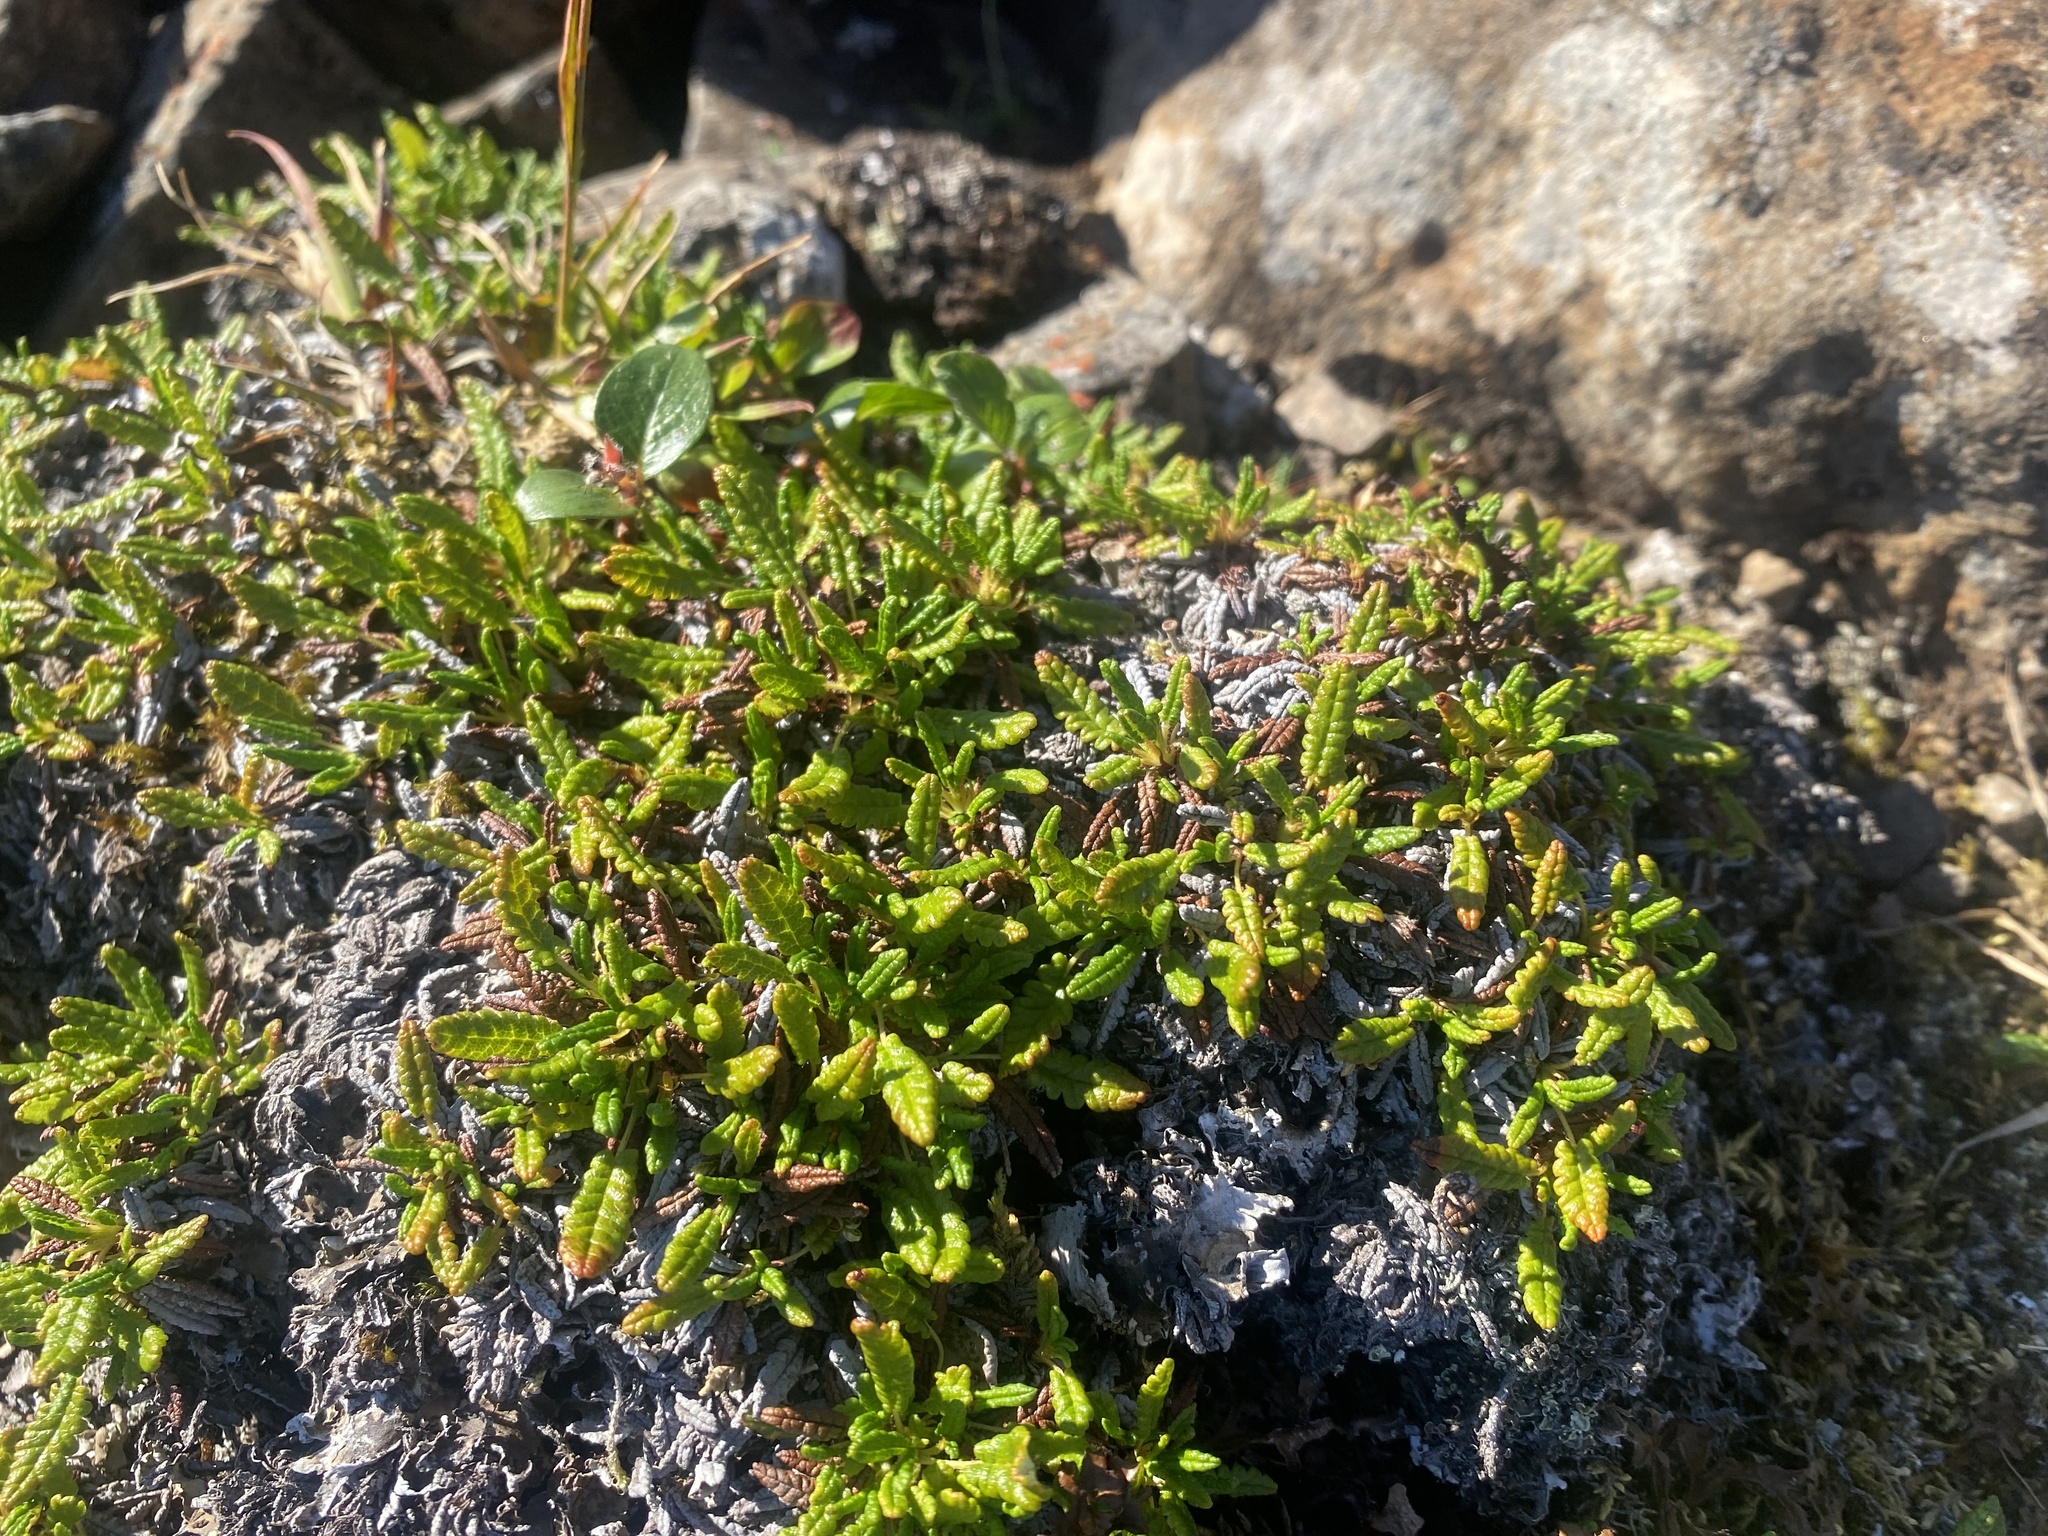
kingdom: Plantae
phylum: Tracheophyta
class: Magnoliopsida
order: Rosales
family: Rosaceae
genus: Dryas
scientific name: Dryas octopetala
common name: Eight-petal mountain-avens
